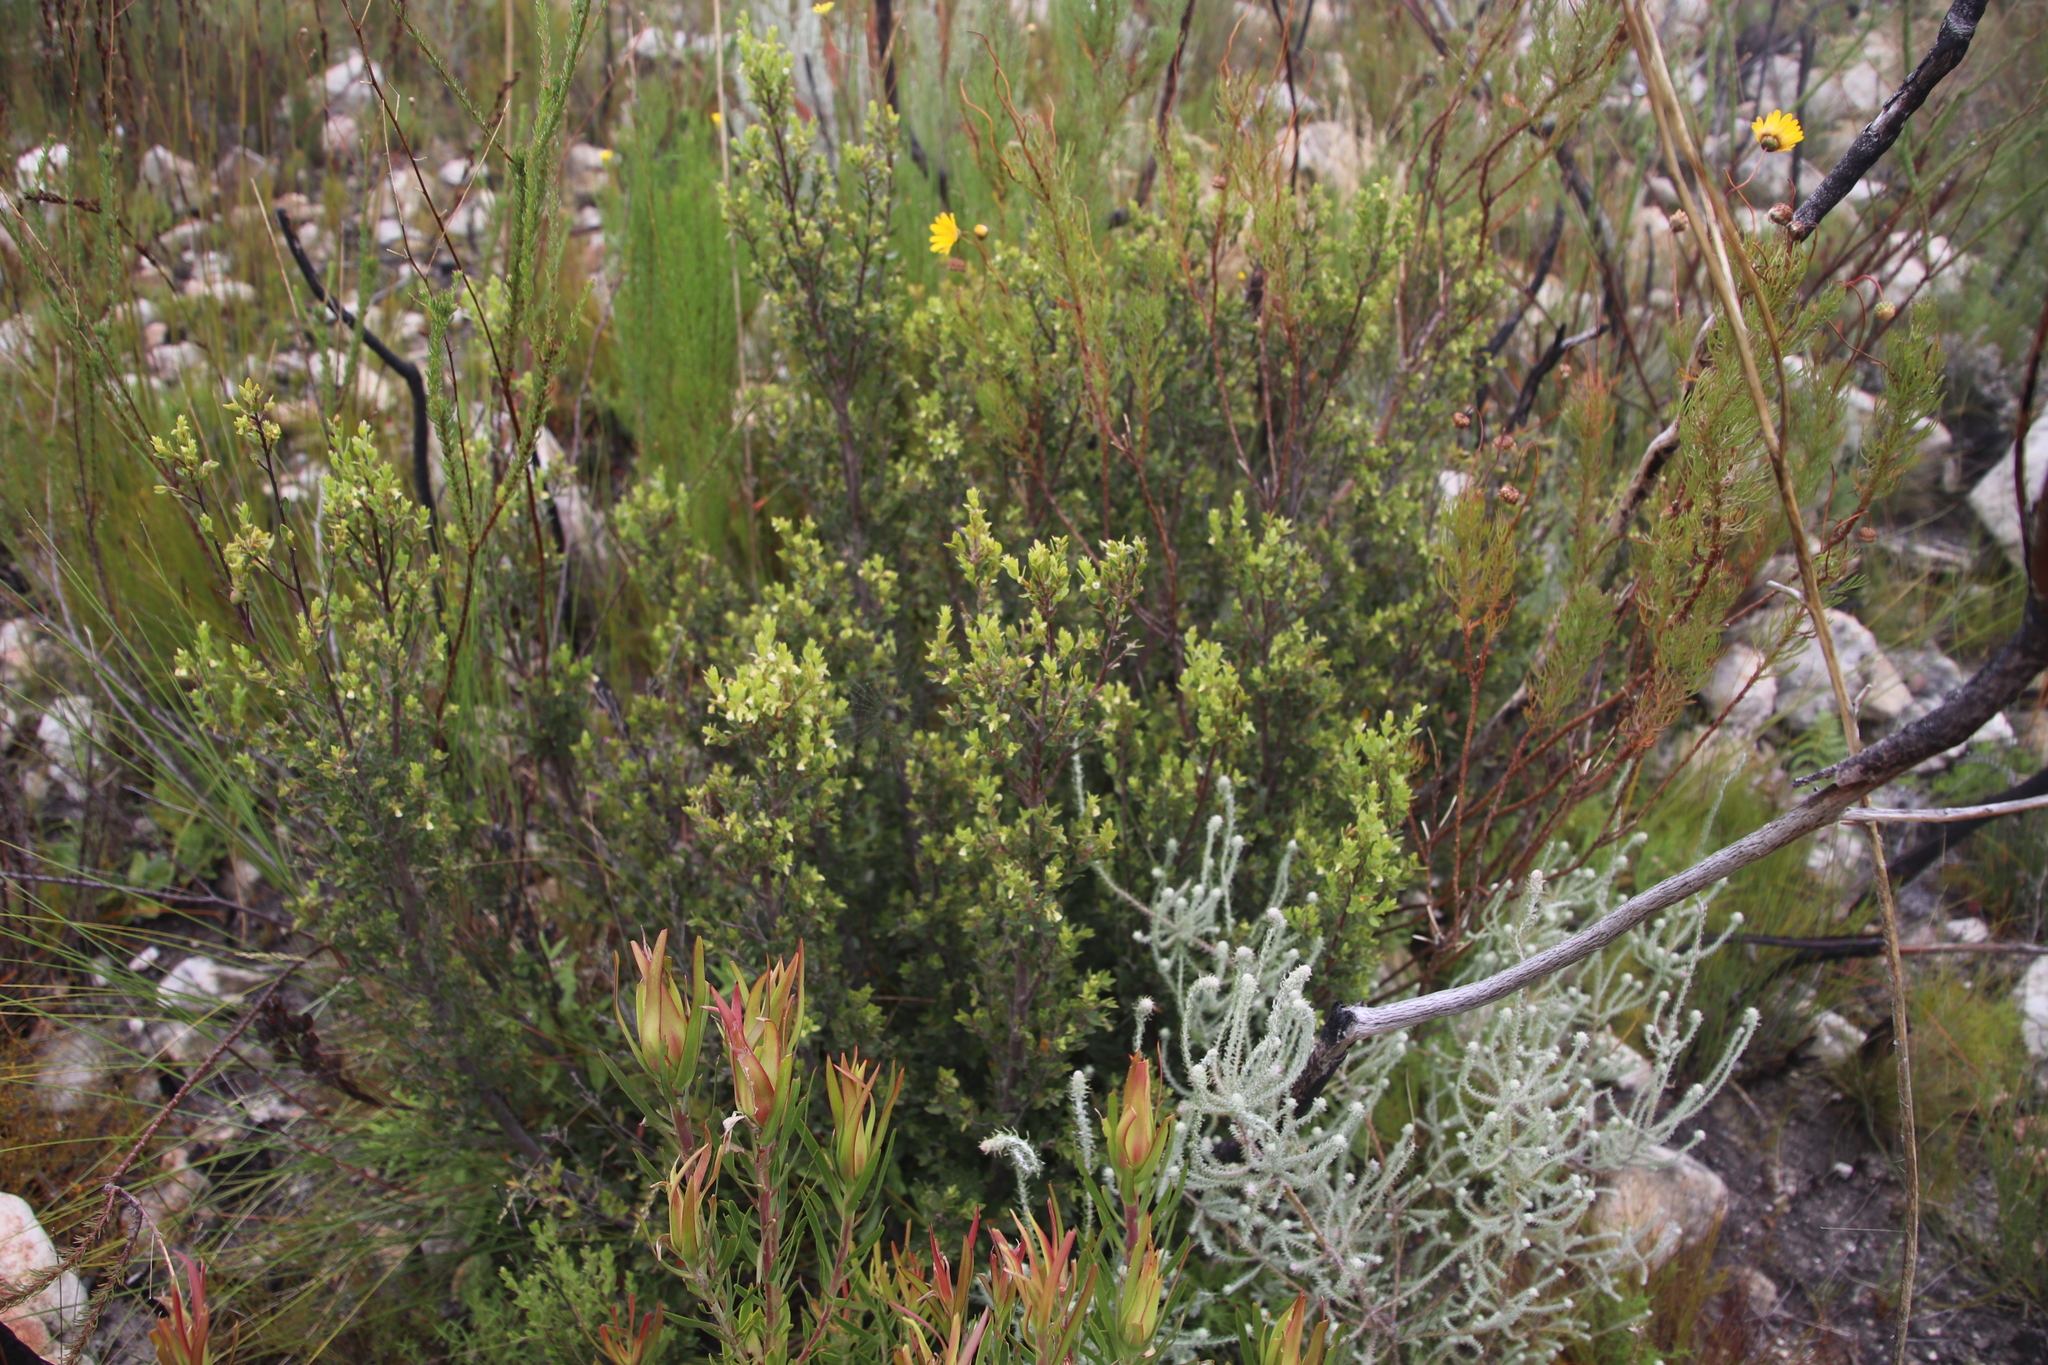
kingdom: Plantae
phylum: Tracheophyta
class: Magnoliopsida
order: Ericales
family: Ebenaceae
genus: Diospyros
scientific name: Diospyros glabra
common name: Fynbos star apple
